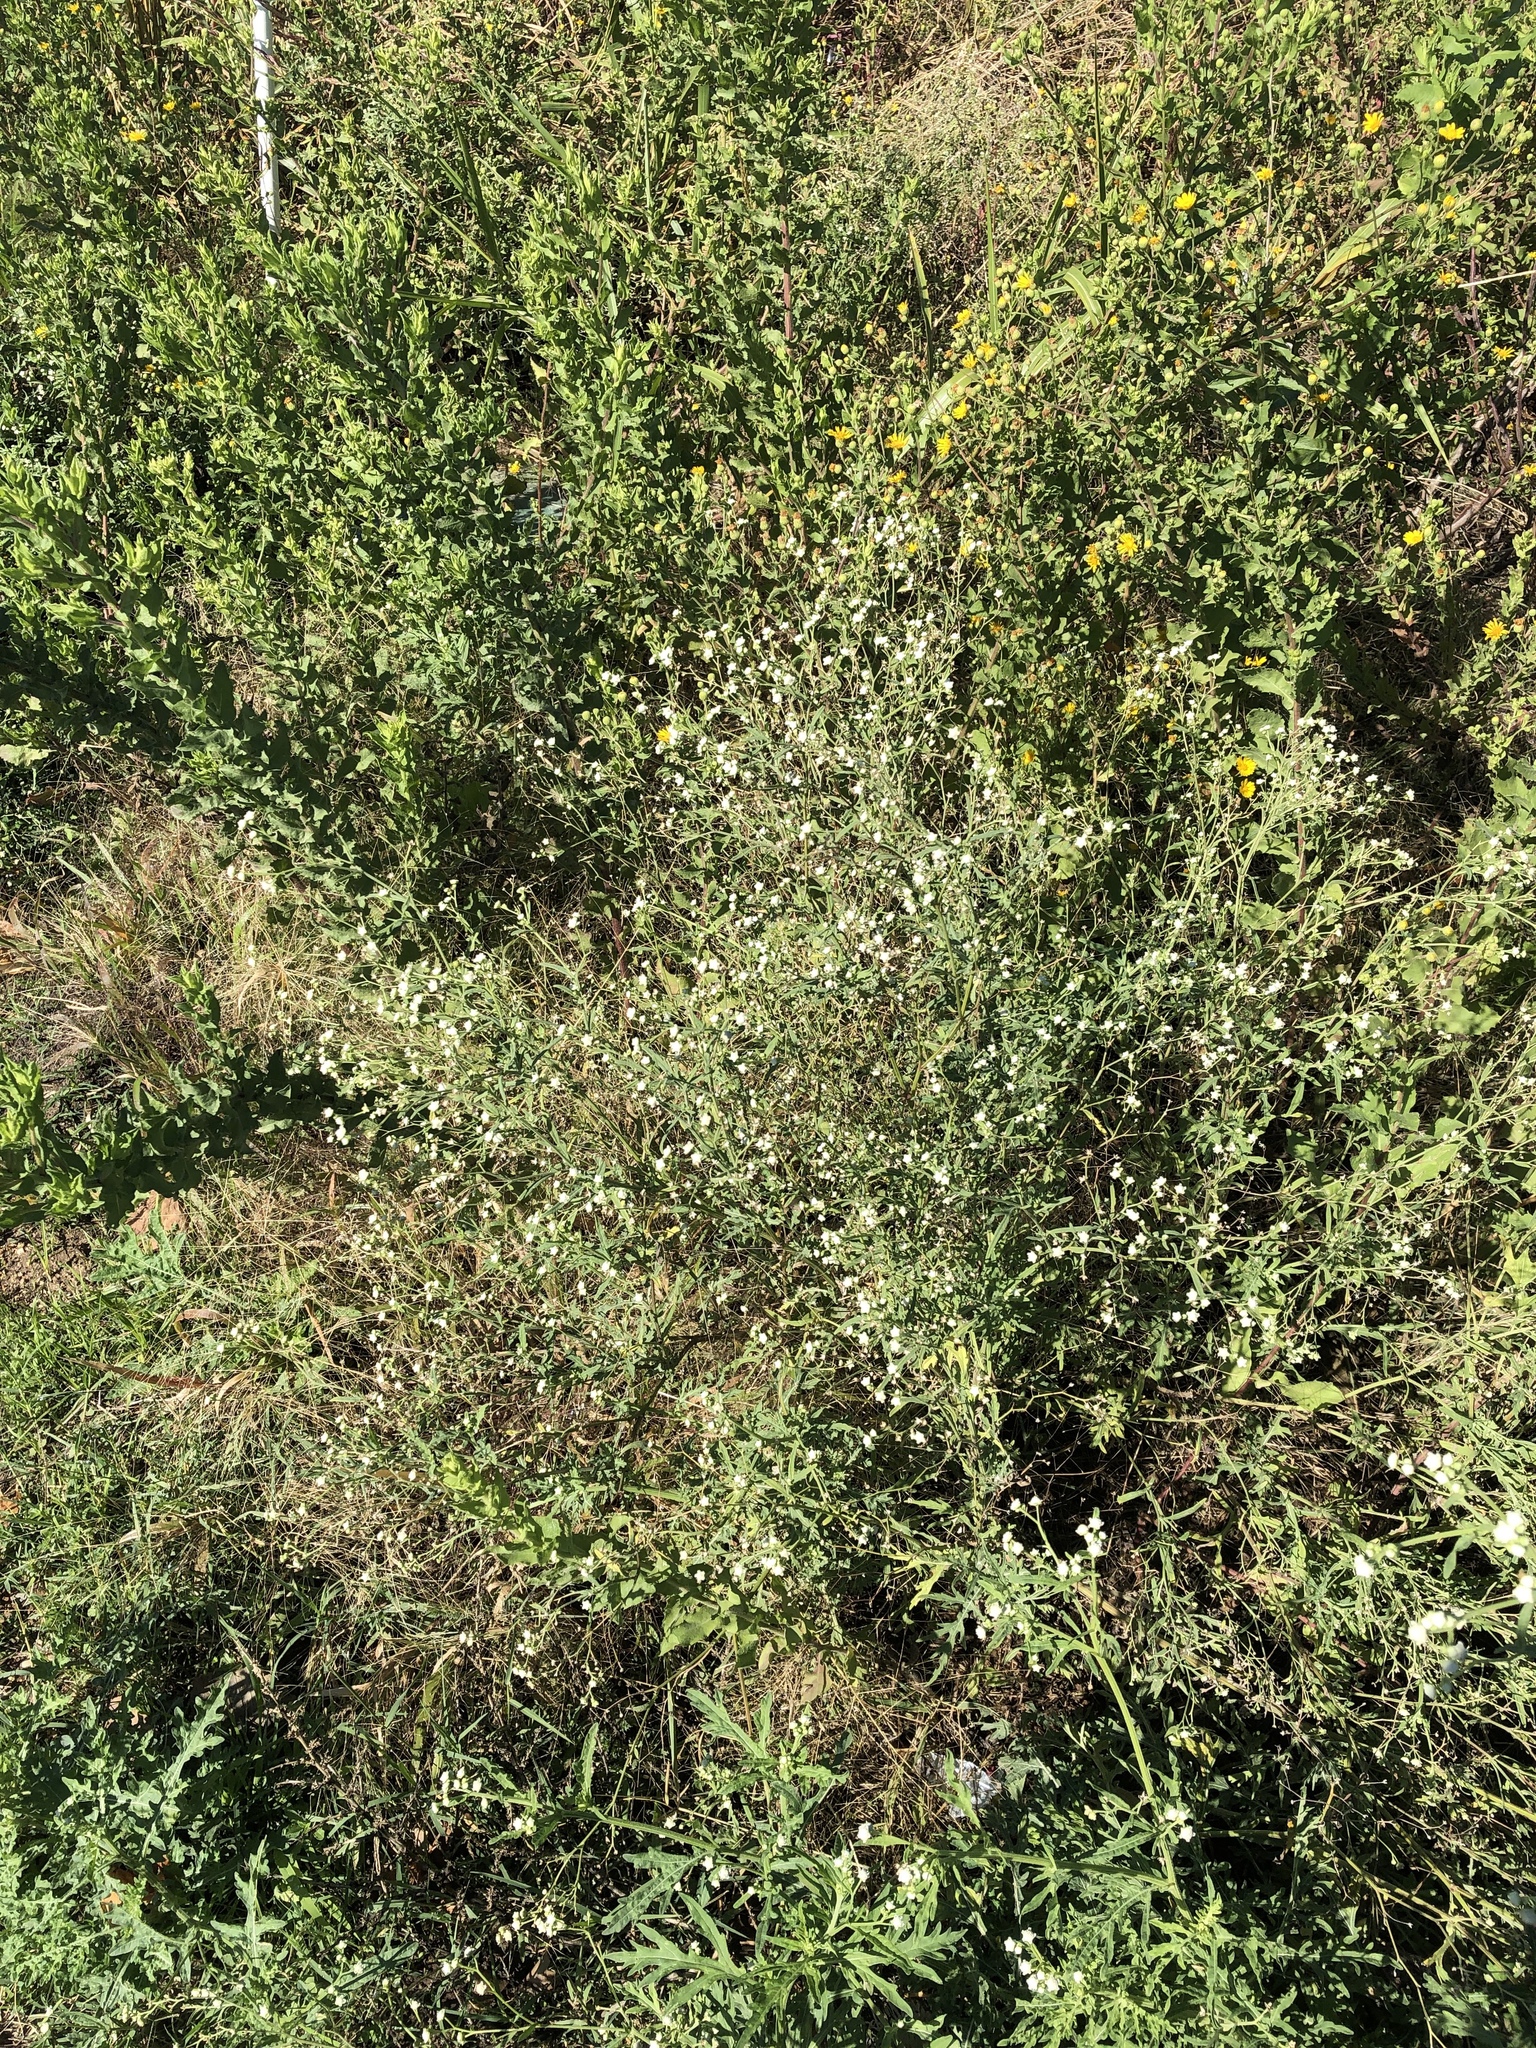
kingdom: Plantae
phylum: Tracheophyta
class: Magnoliopsida
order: Asterales
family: Asteraceae
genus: Parthenium
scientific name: Parthenium hysterophorus
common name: Santa maria feverfew
